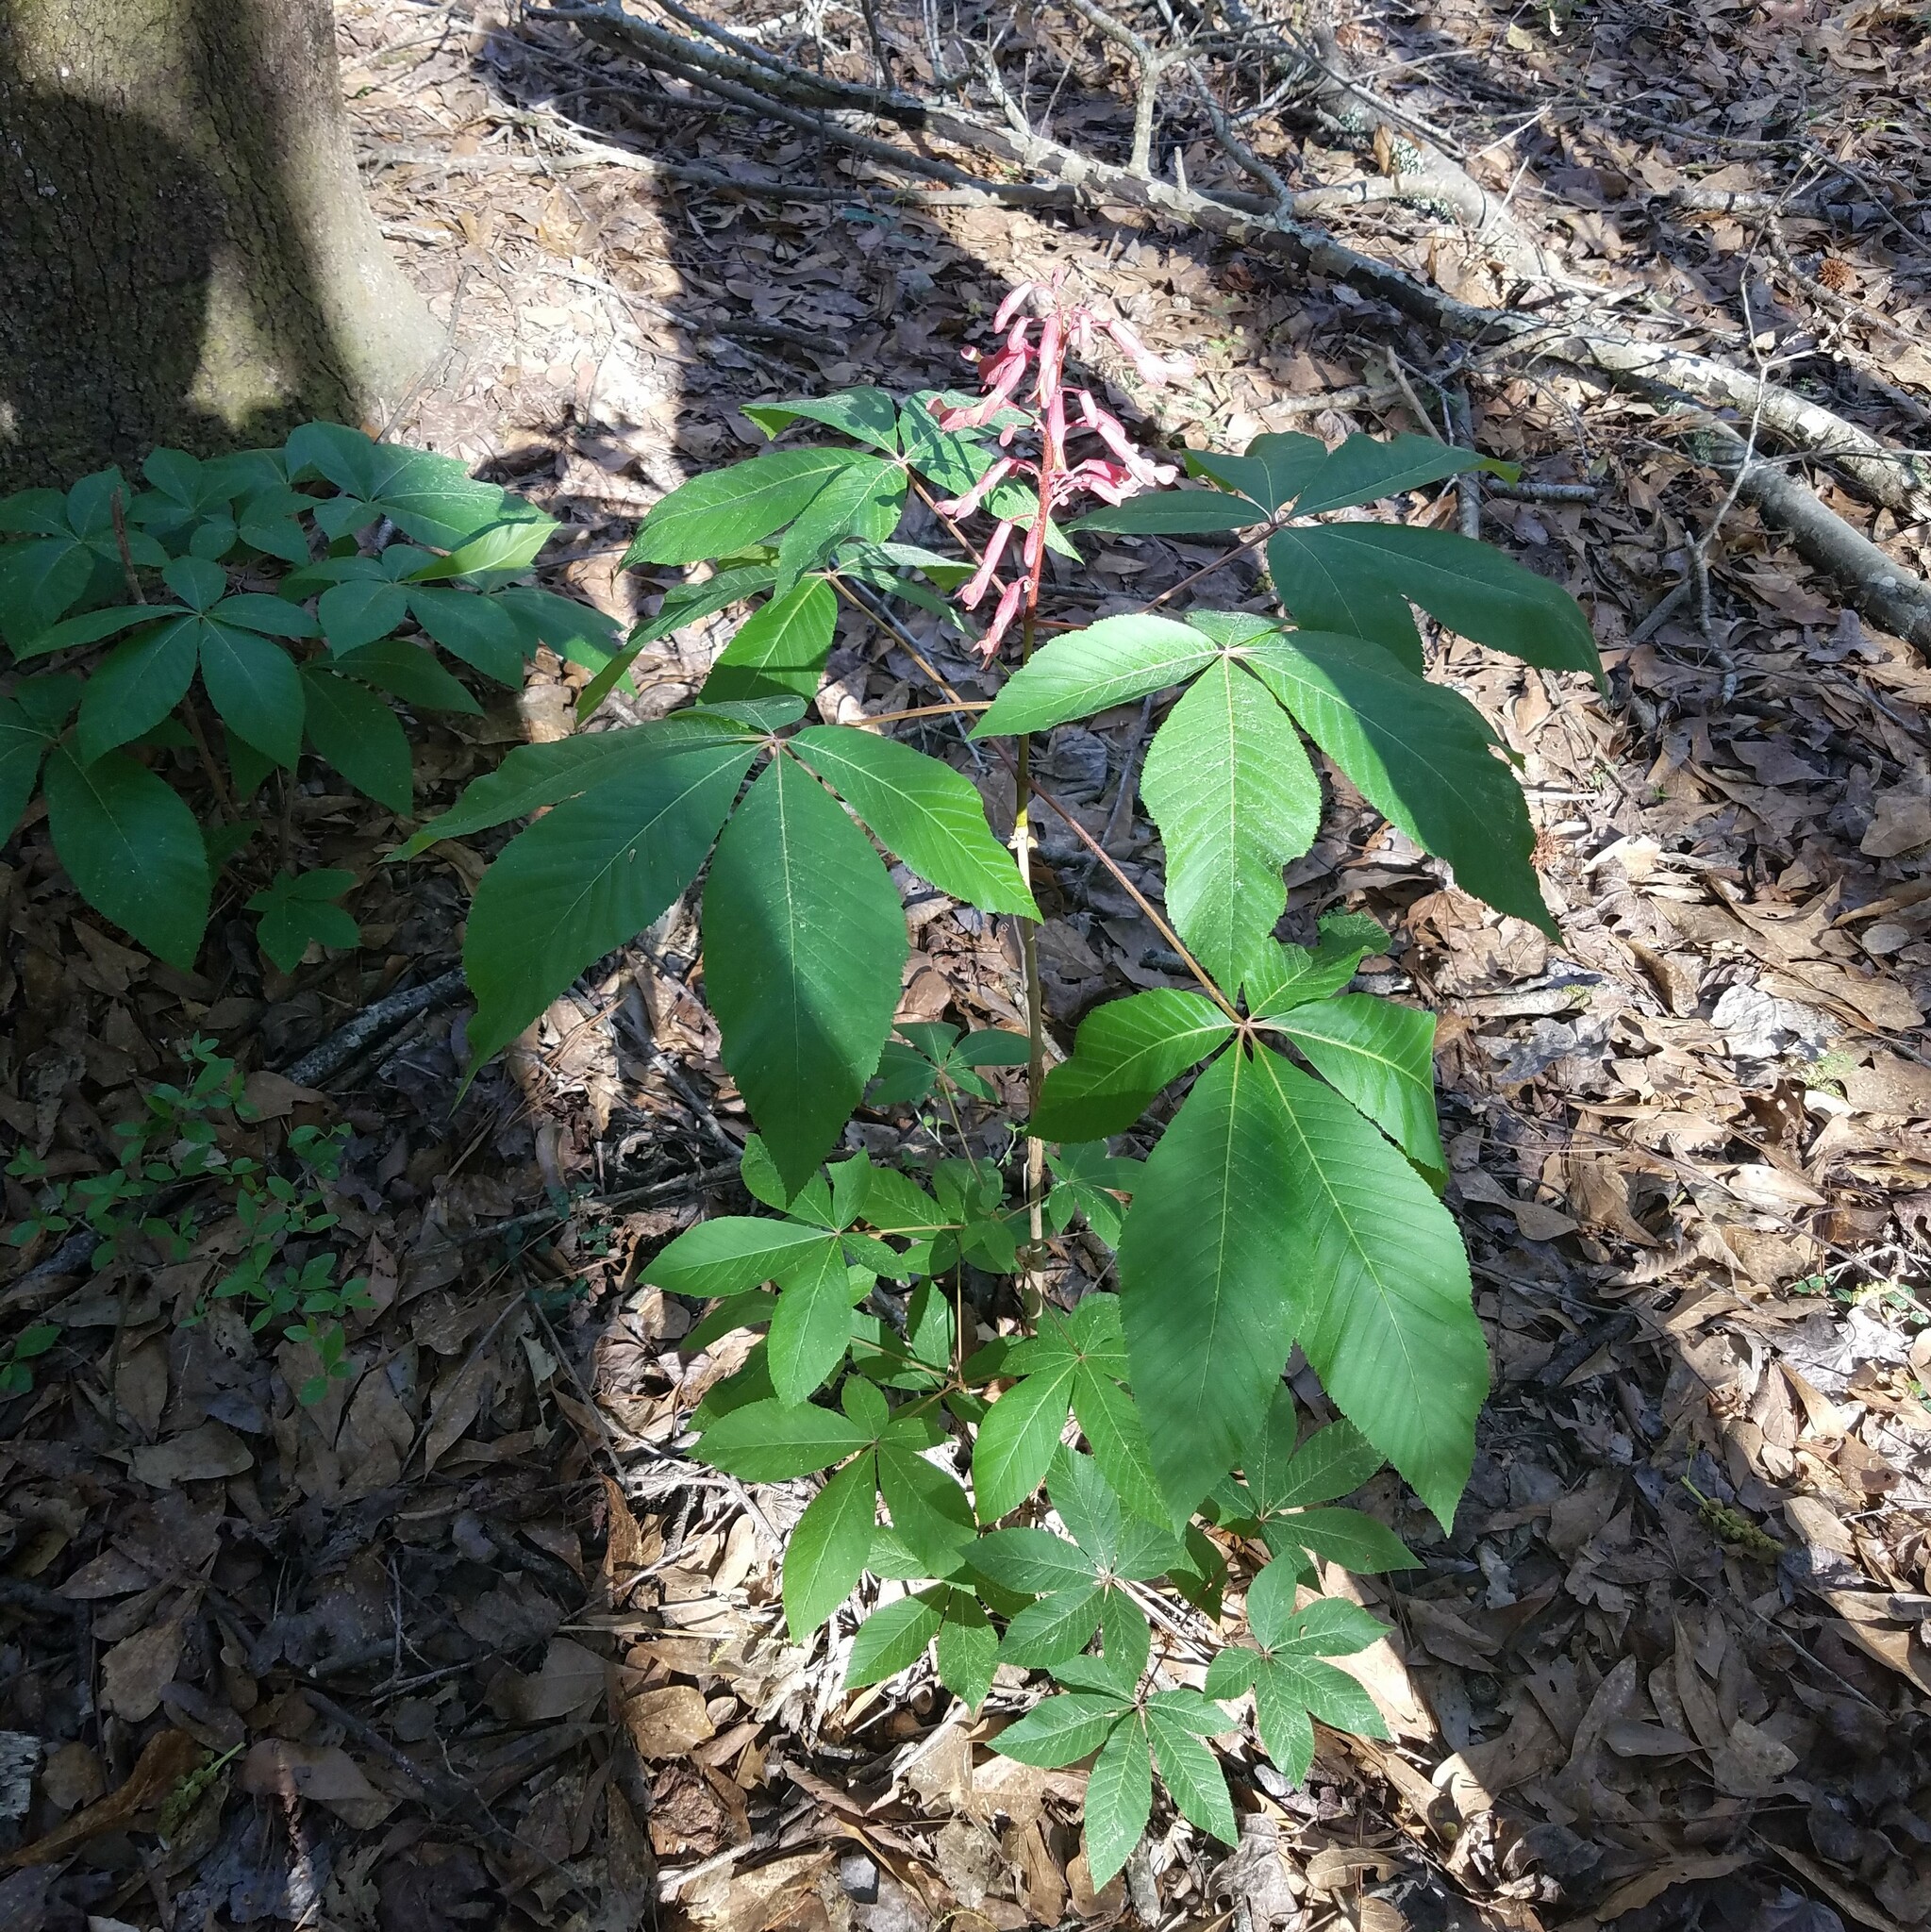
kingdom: Plantae
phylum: Tracheophyta
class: Magnoliopsida
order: Sapindales
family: Sapindaceae
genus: Aesculus
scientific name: Aesculus pavia
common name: Red buckeye
